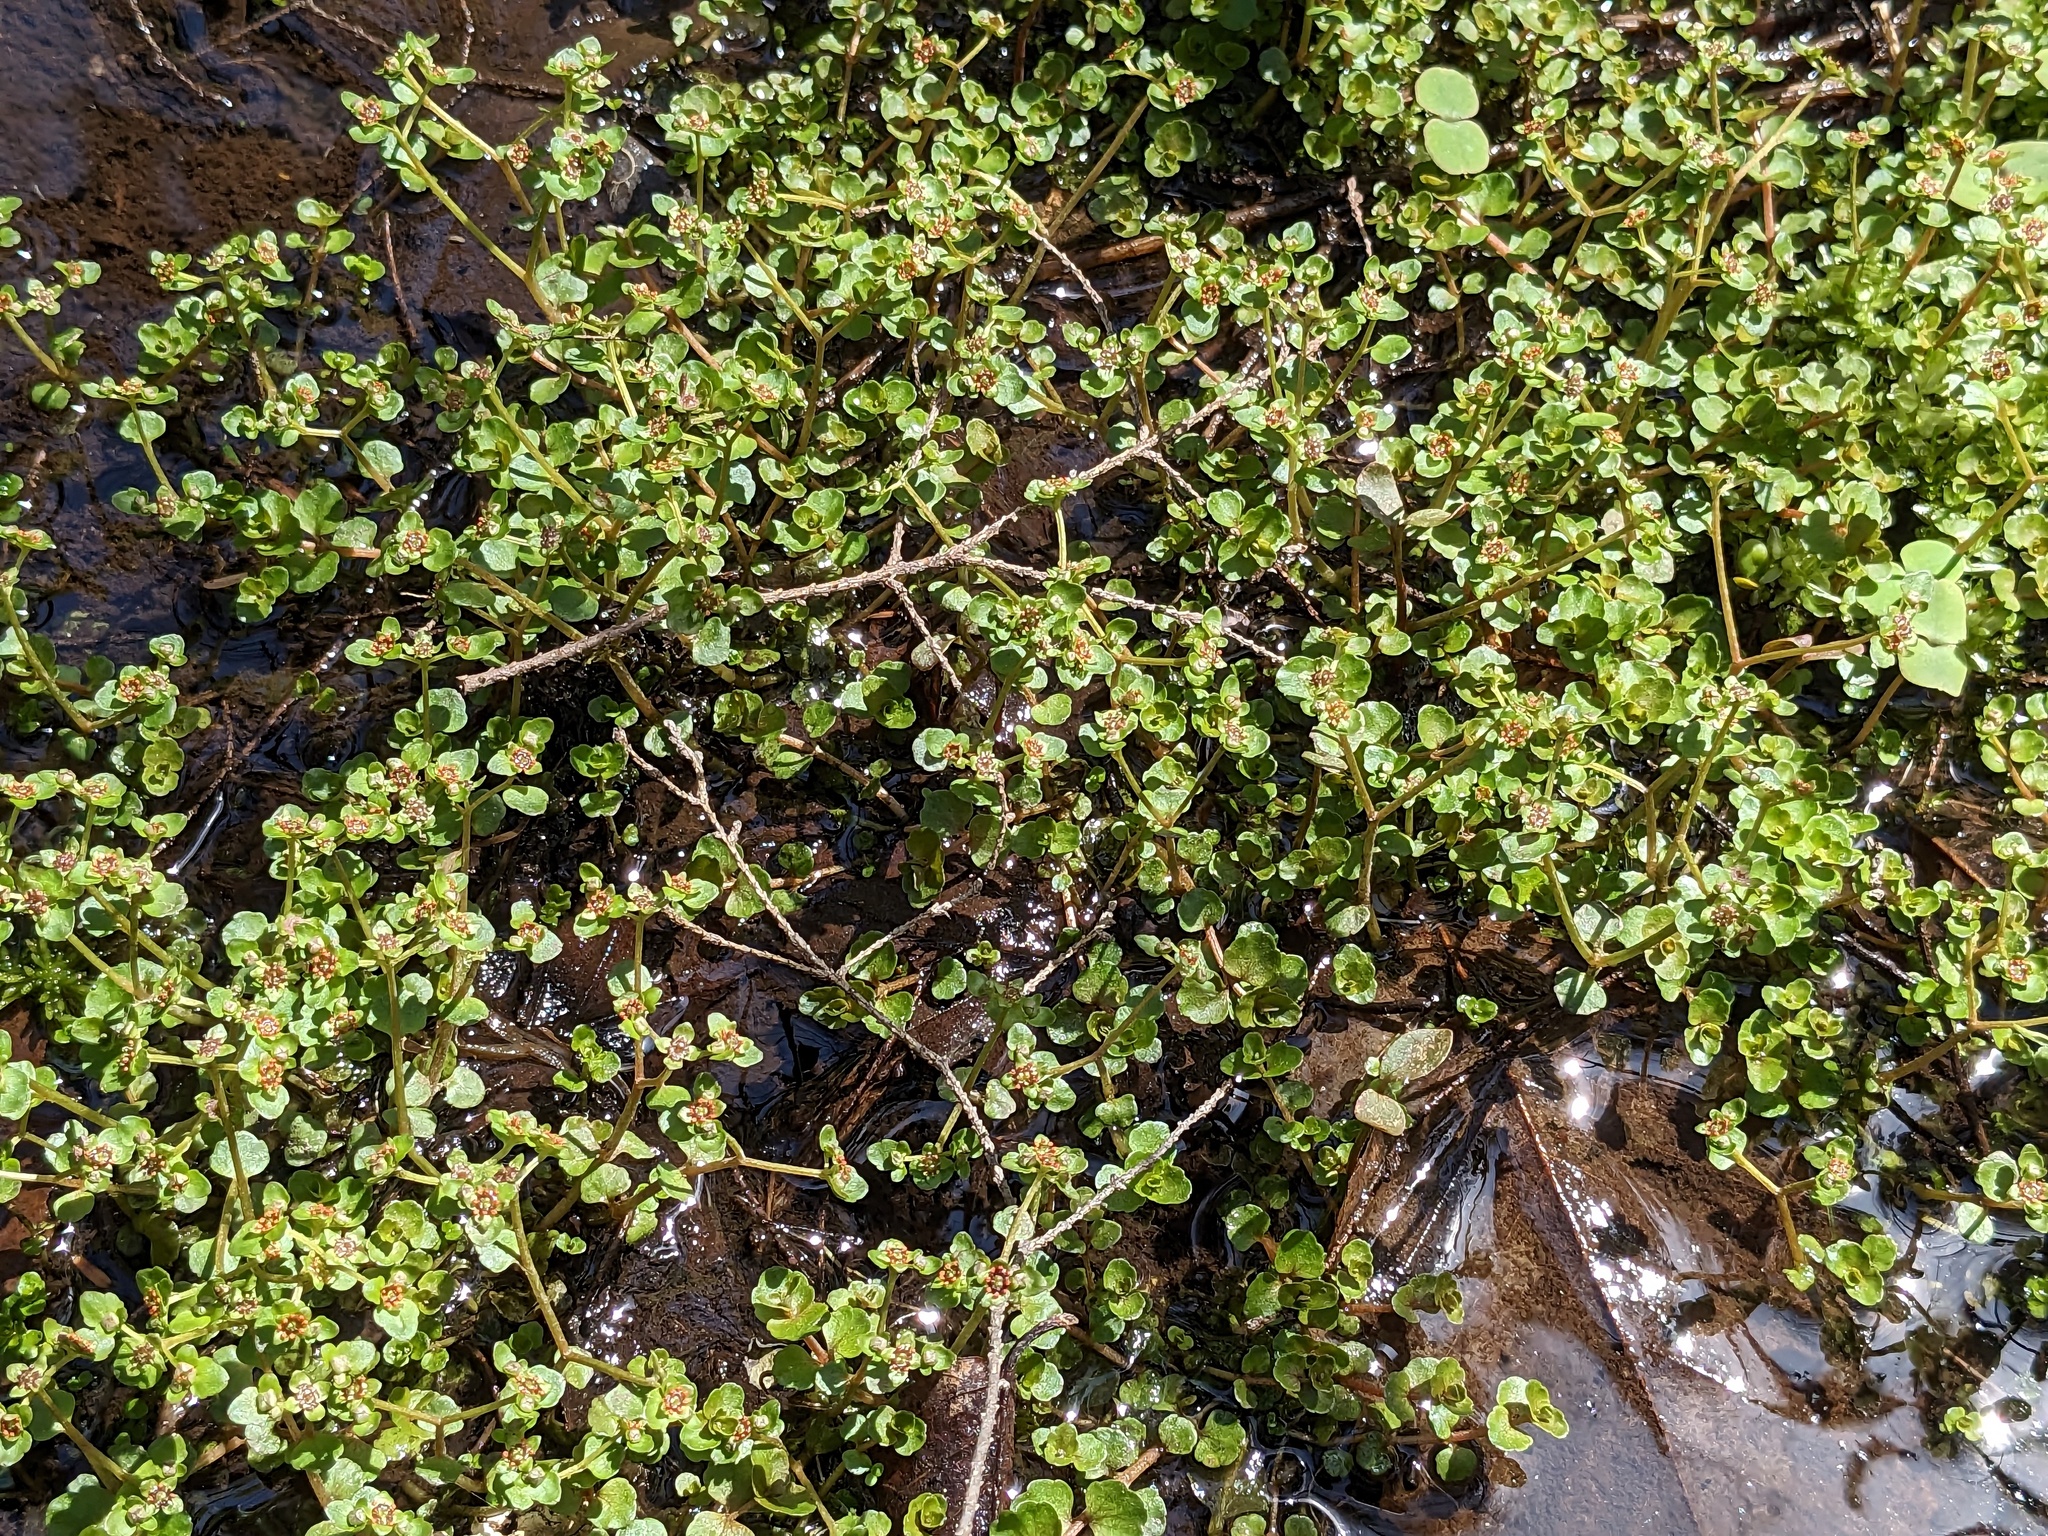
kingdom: Plantae
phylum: Tracheophyta
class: Magnoliopsida
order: Saxifragales
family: Saxifragaceae
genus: Chrysosplenium
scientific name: Chrysosplenium americanum
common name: American golden-saxifrage
